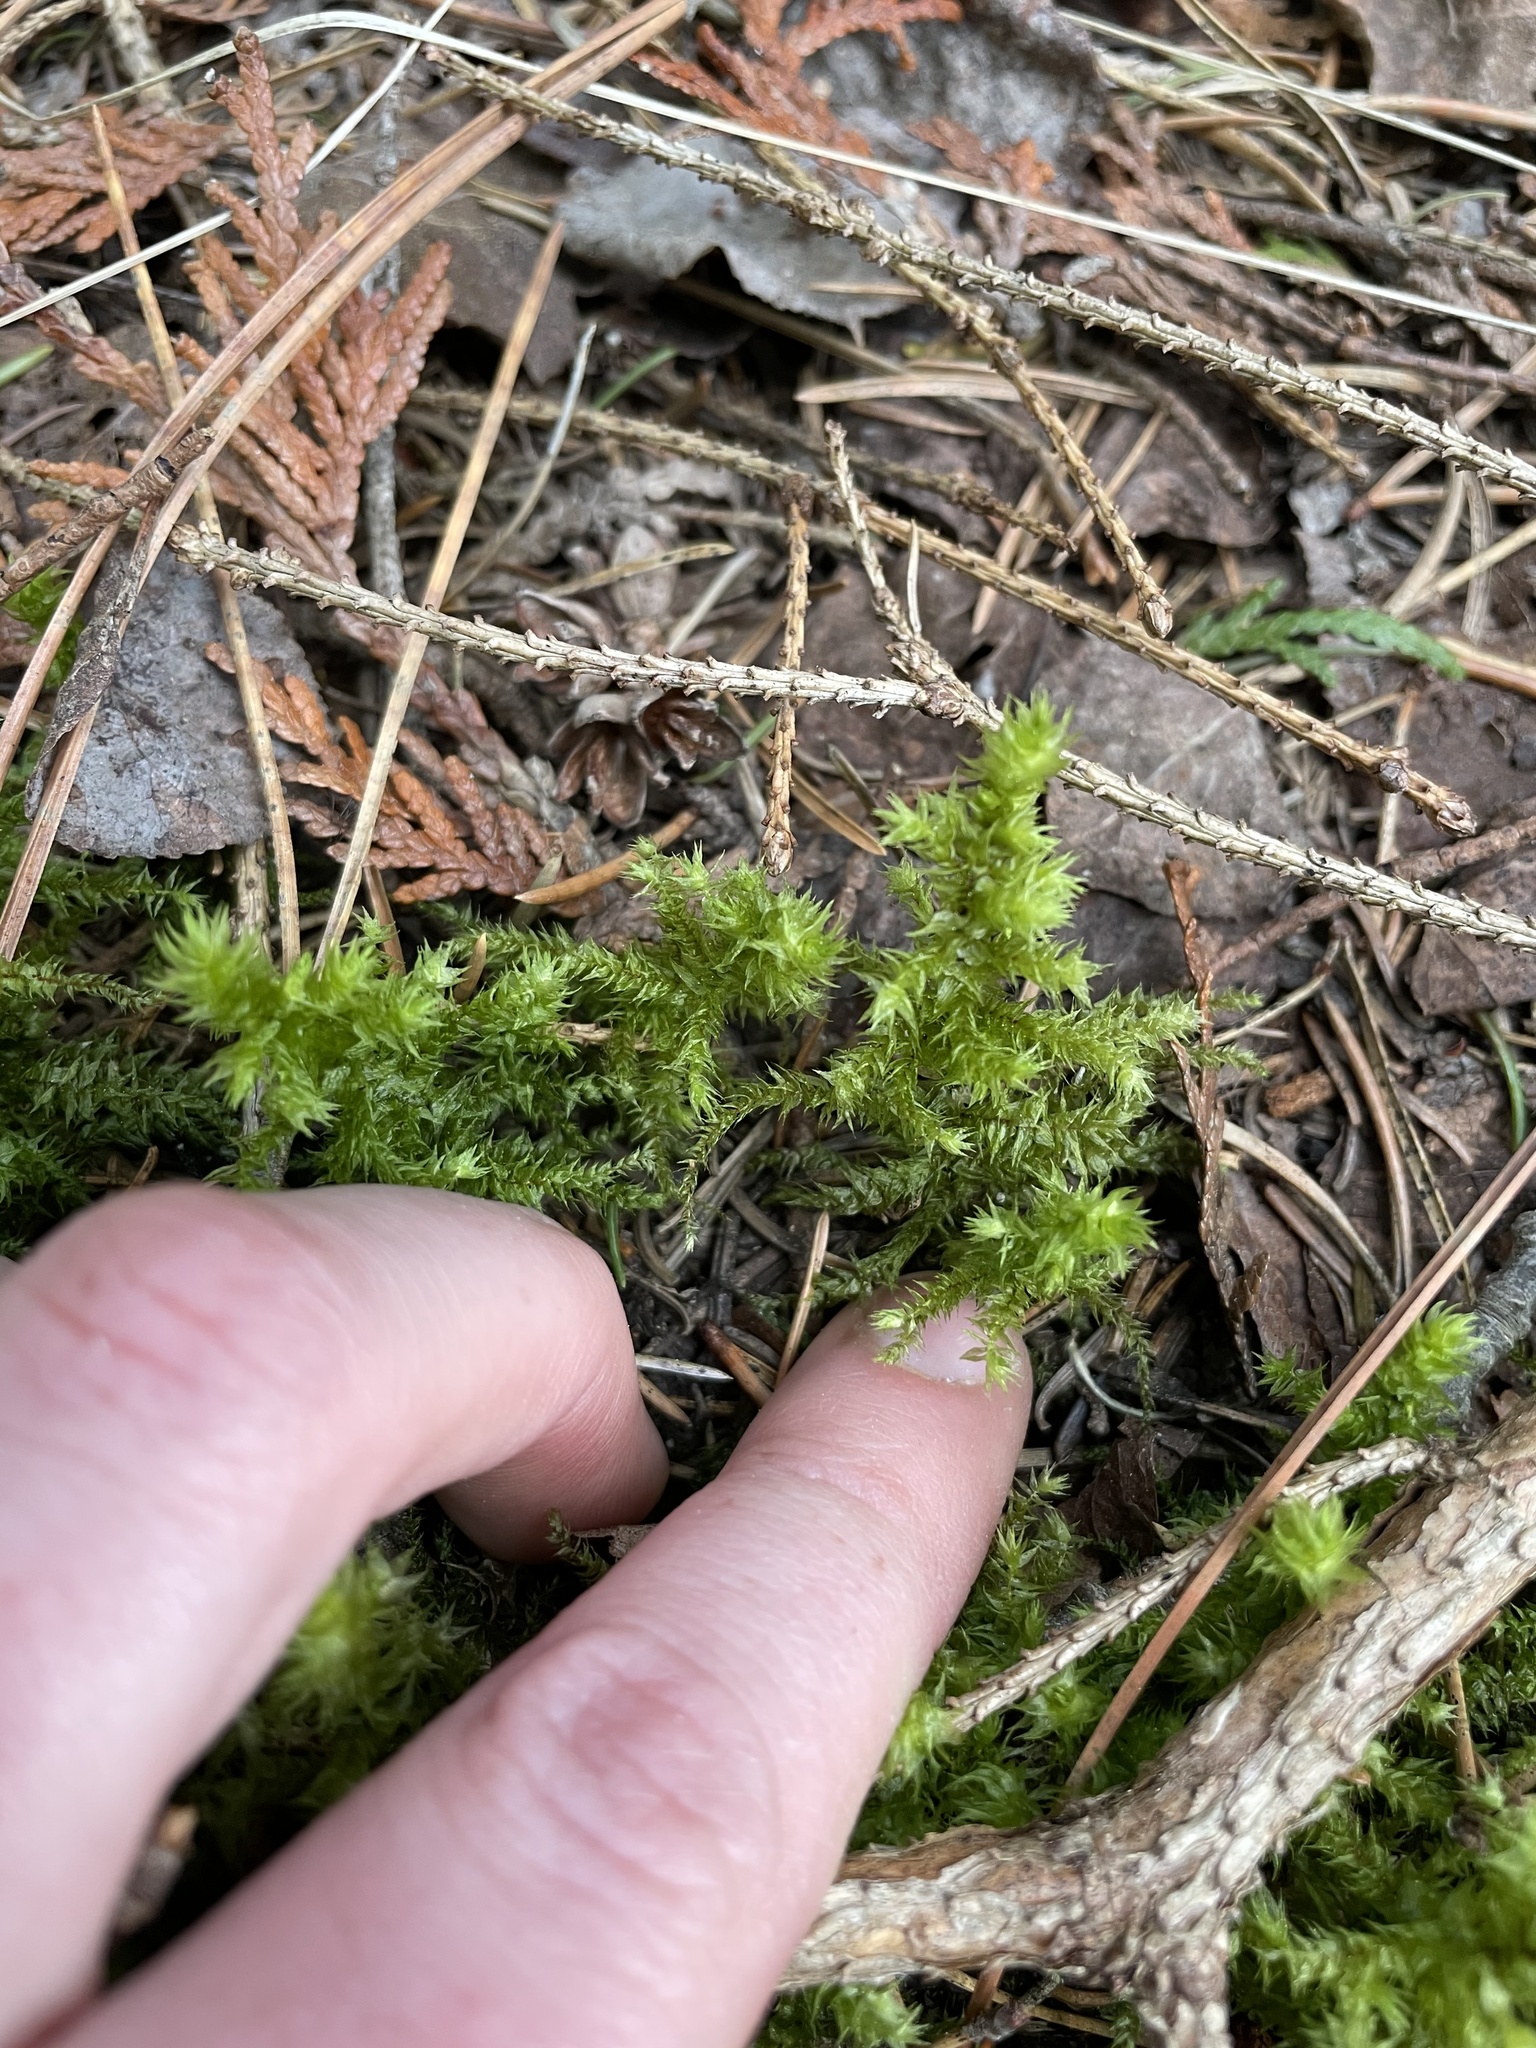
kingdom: Plantae
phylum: Bryophyta
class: Bryopsida
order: Hypnales
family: Hylocomiaceae
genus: Hylocomiadelphus
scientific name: Hylocomiadelphus triquetrus
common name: Rough goose neck moss
